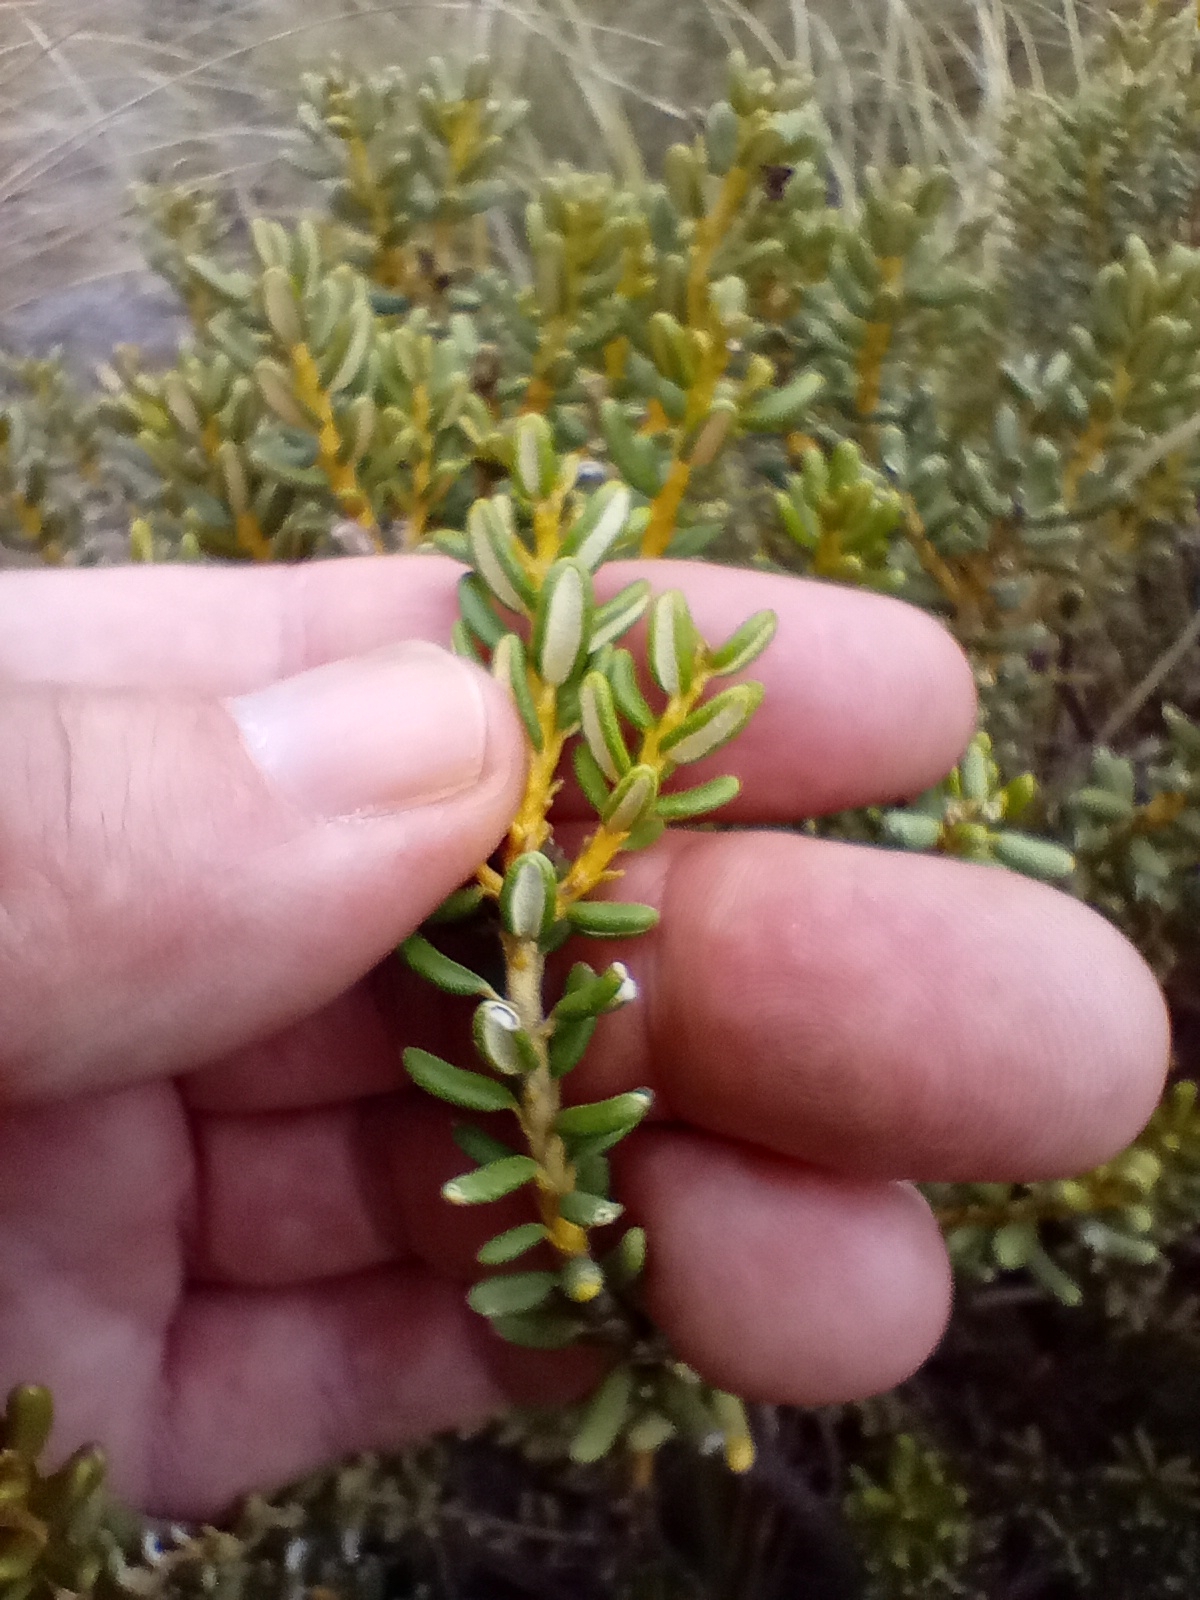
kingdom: Plantae
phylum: Tracheophyta
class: Magnoliopsida
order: Asterales
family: Asteraceae
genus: Olearia
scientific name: Olearia cymbifolia
